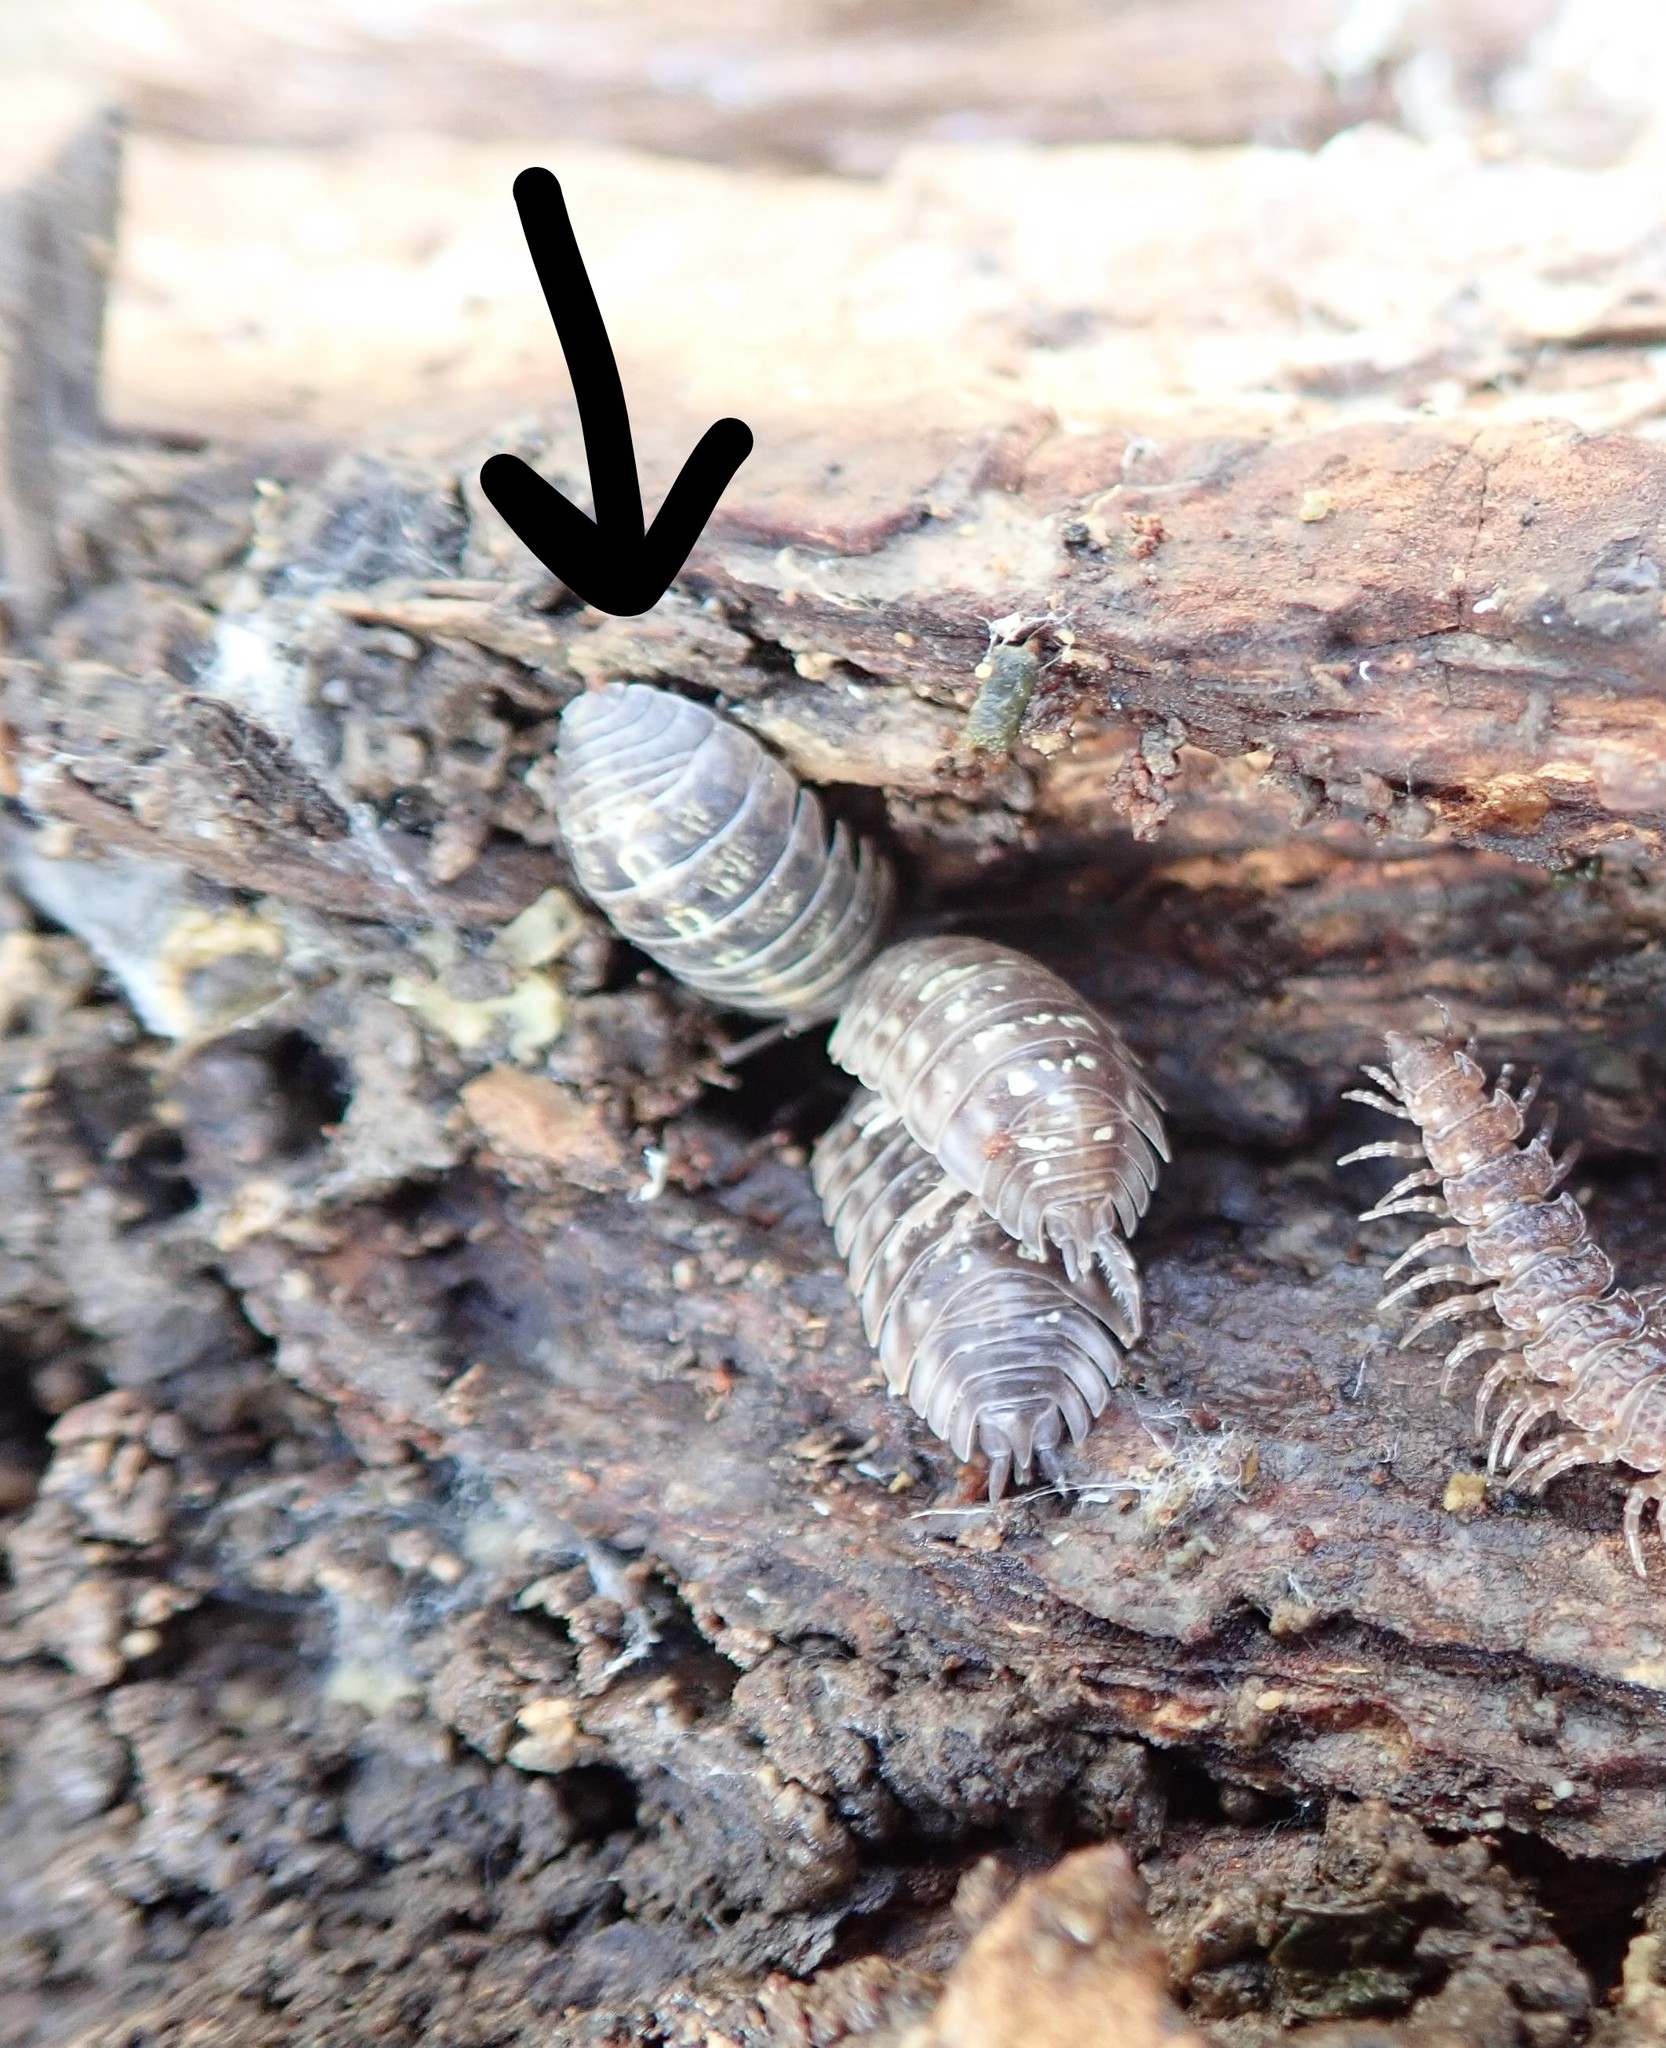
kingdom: Animalia
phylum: Arthropoda
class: Malacostraca
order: Isopoda
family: Armadillidiidae
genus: Armadillidium
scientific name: Armadillidium vulgare
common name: Common pill woodlouse
